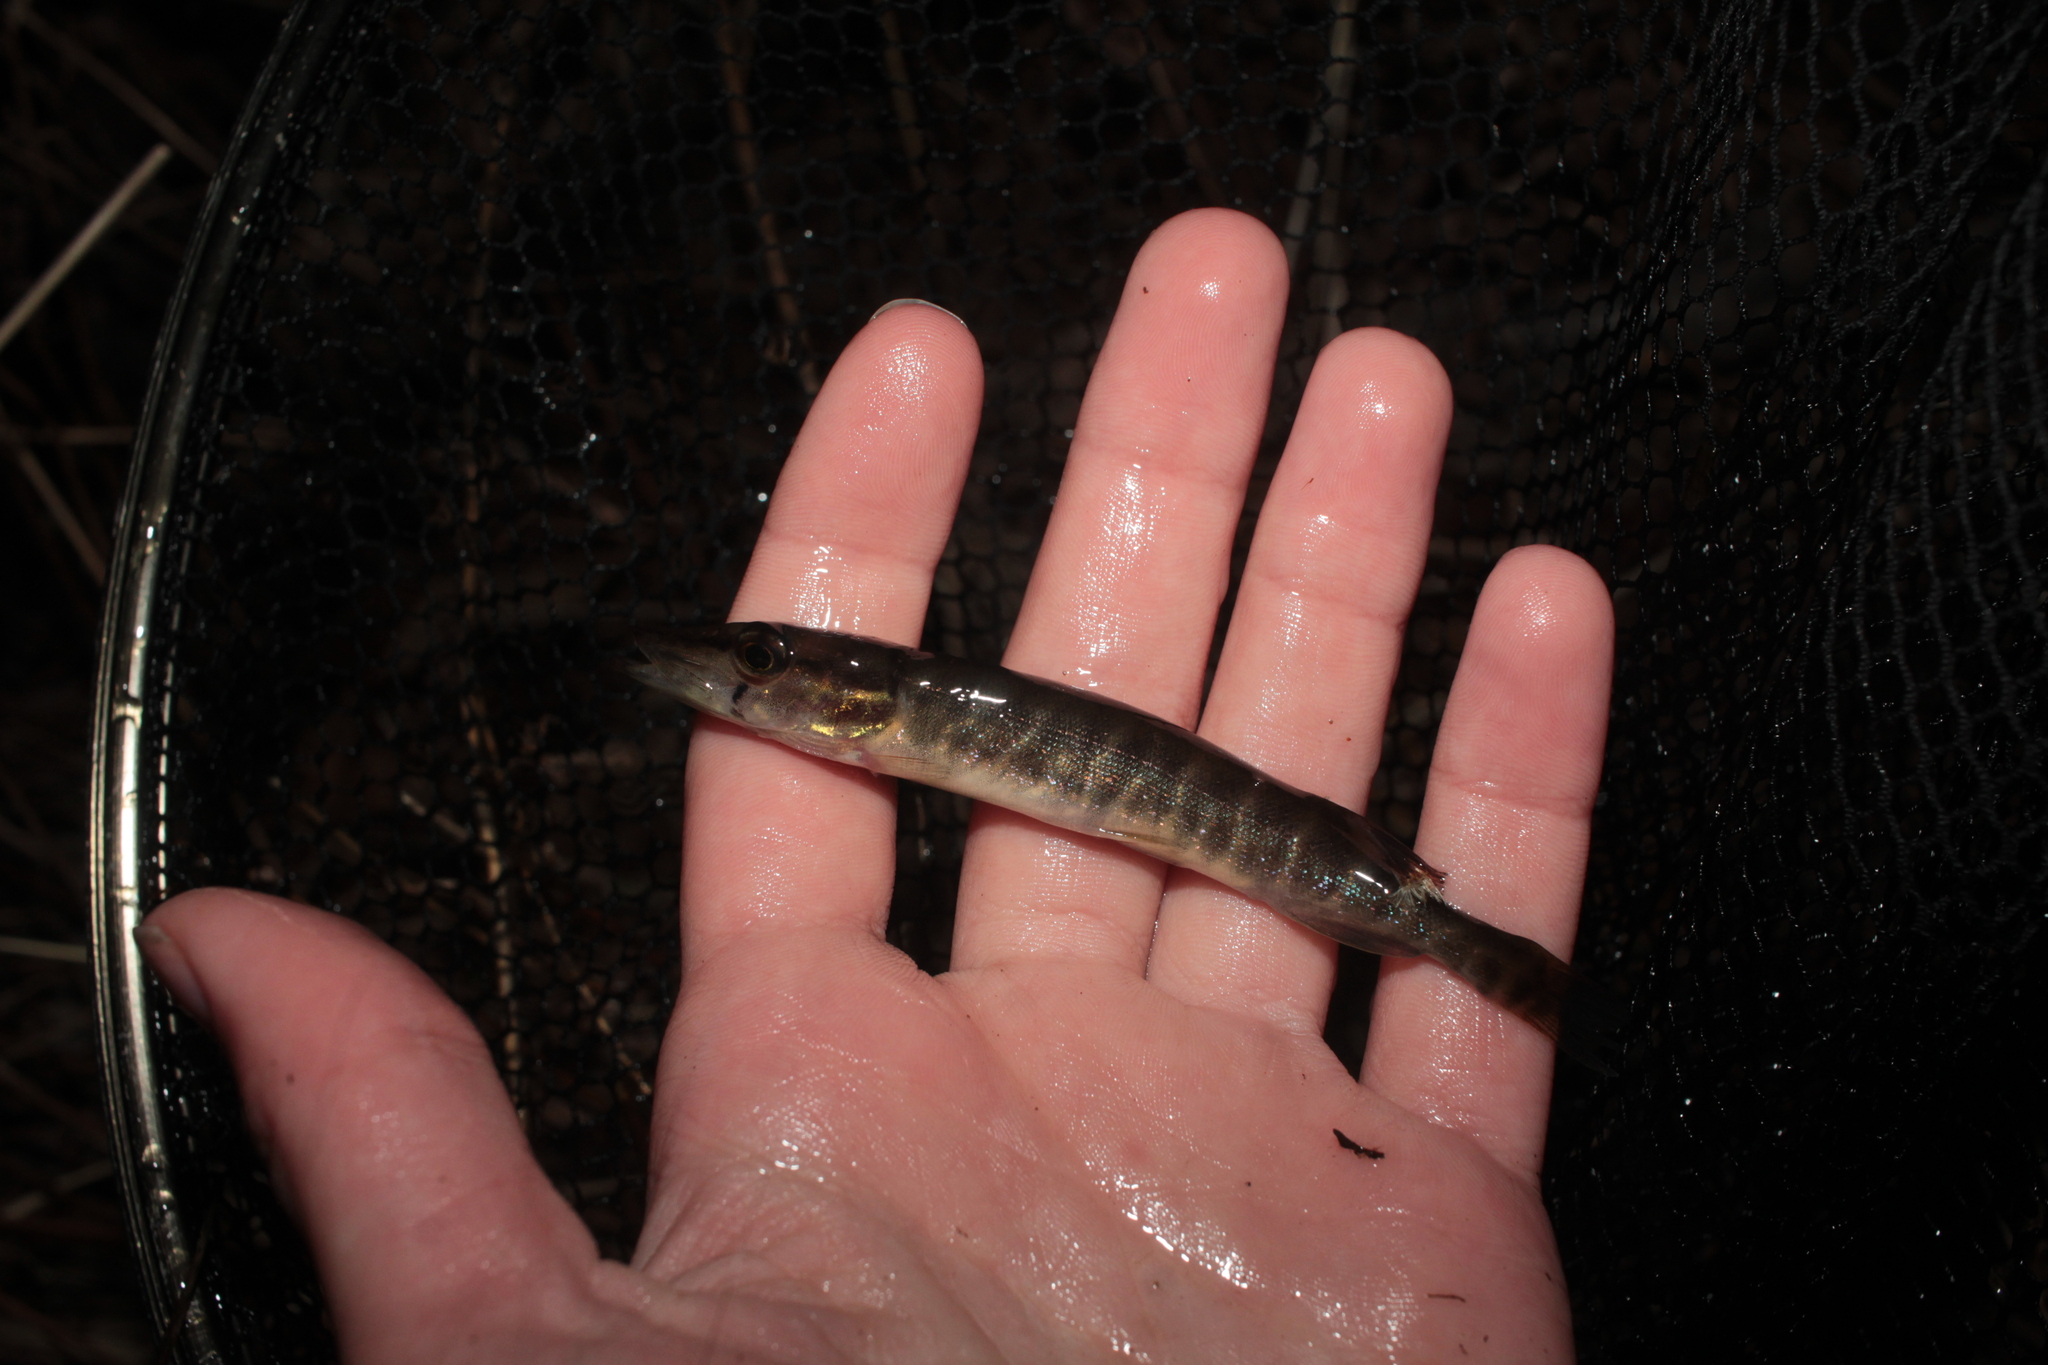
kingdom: Animalia
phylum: Chordata
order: Esociformes
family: Esocidae
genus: Esox
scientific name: Esox americanus
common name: Redfin pickerel
